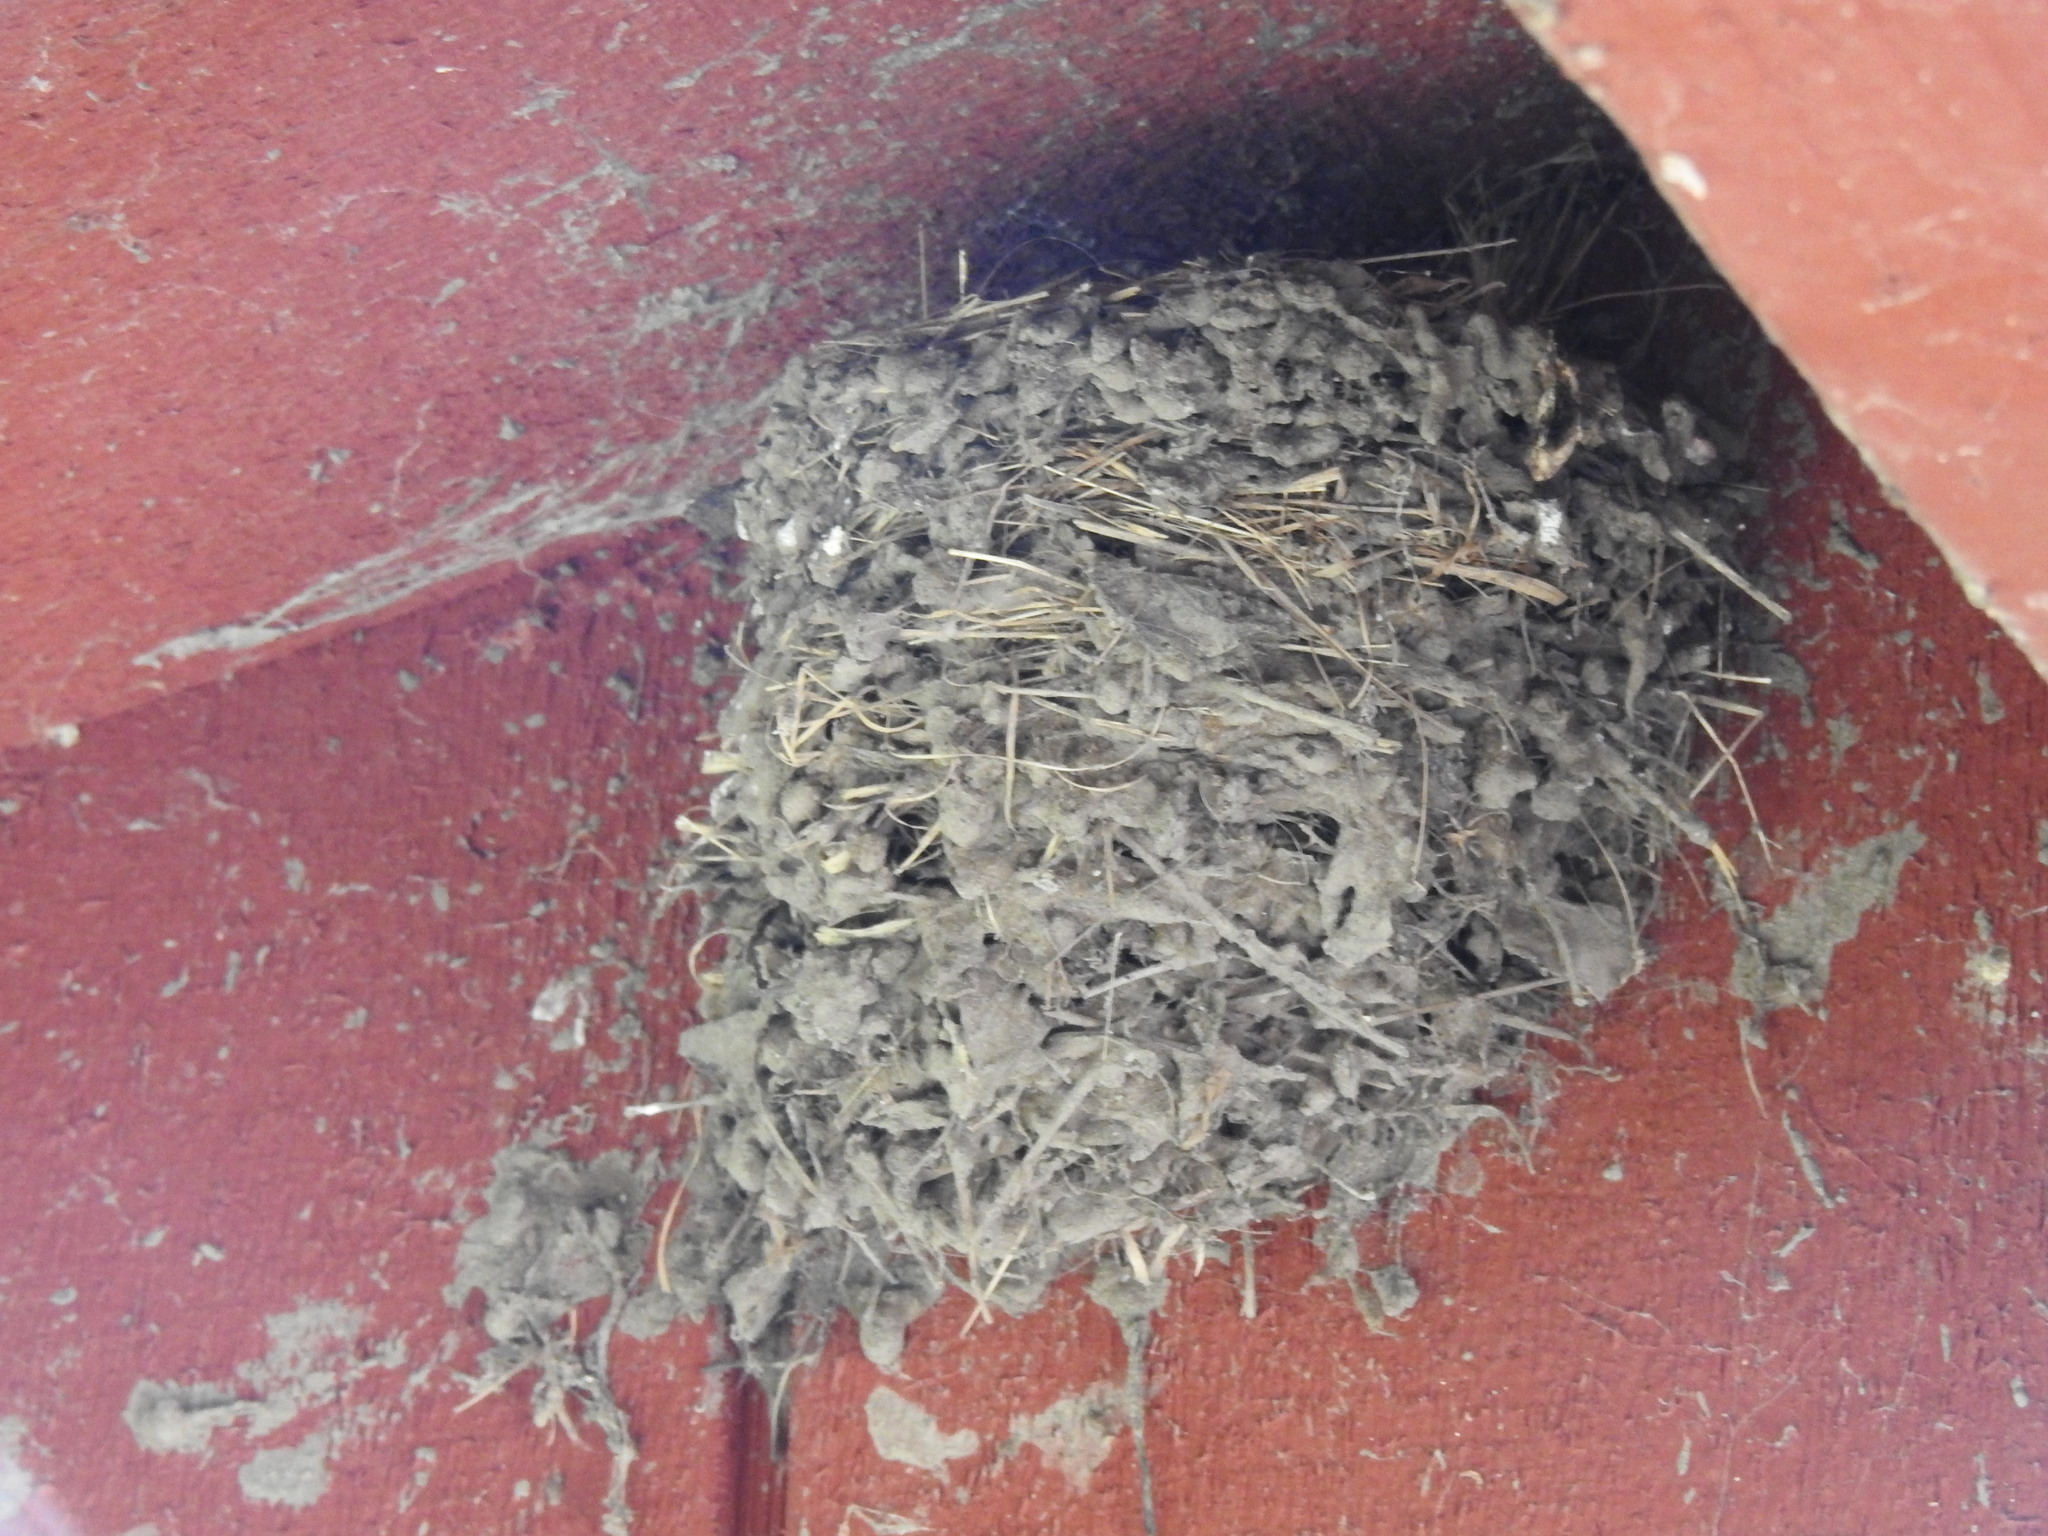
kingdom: Animalia
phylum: Chordata
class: Aves
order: Passeriformes
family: Tyrannidae
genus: Sayornis
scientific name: Sayornis nigricans
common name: Black phoebe
